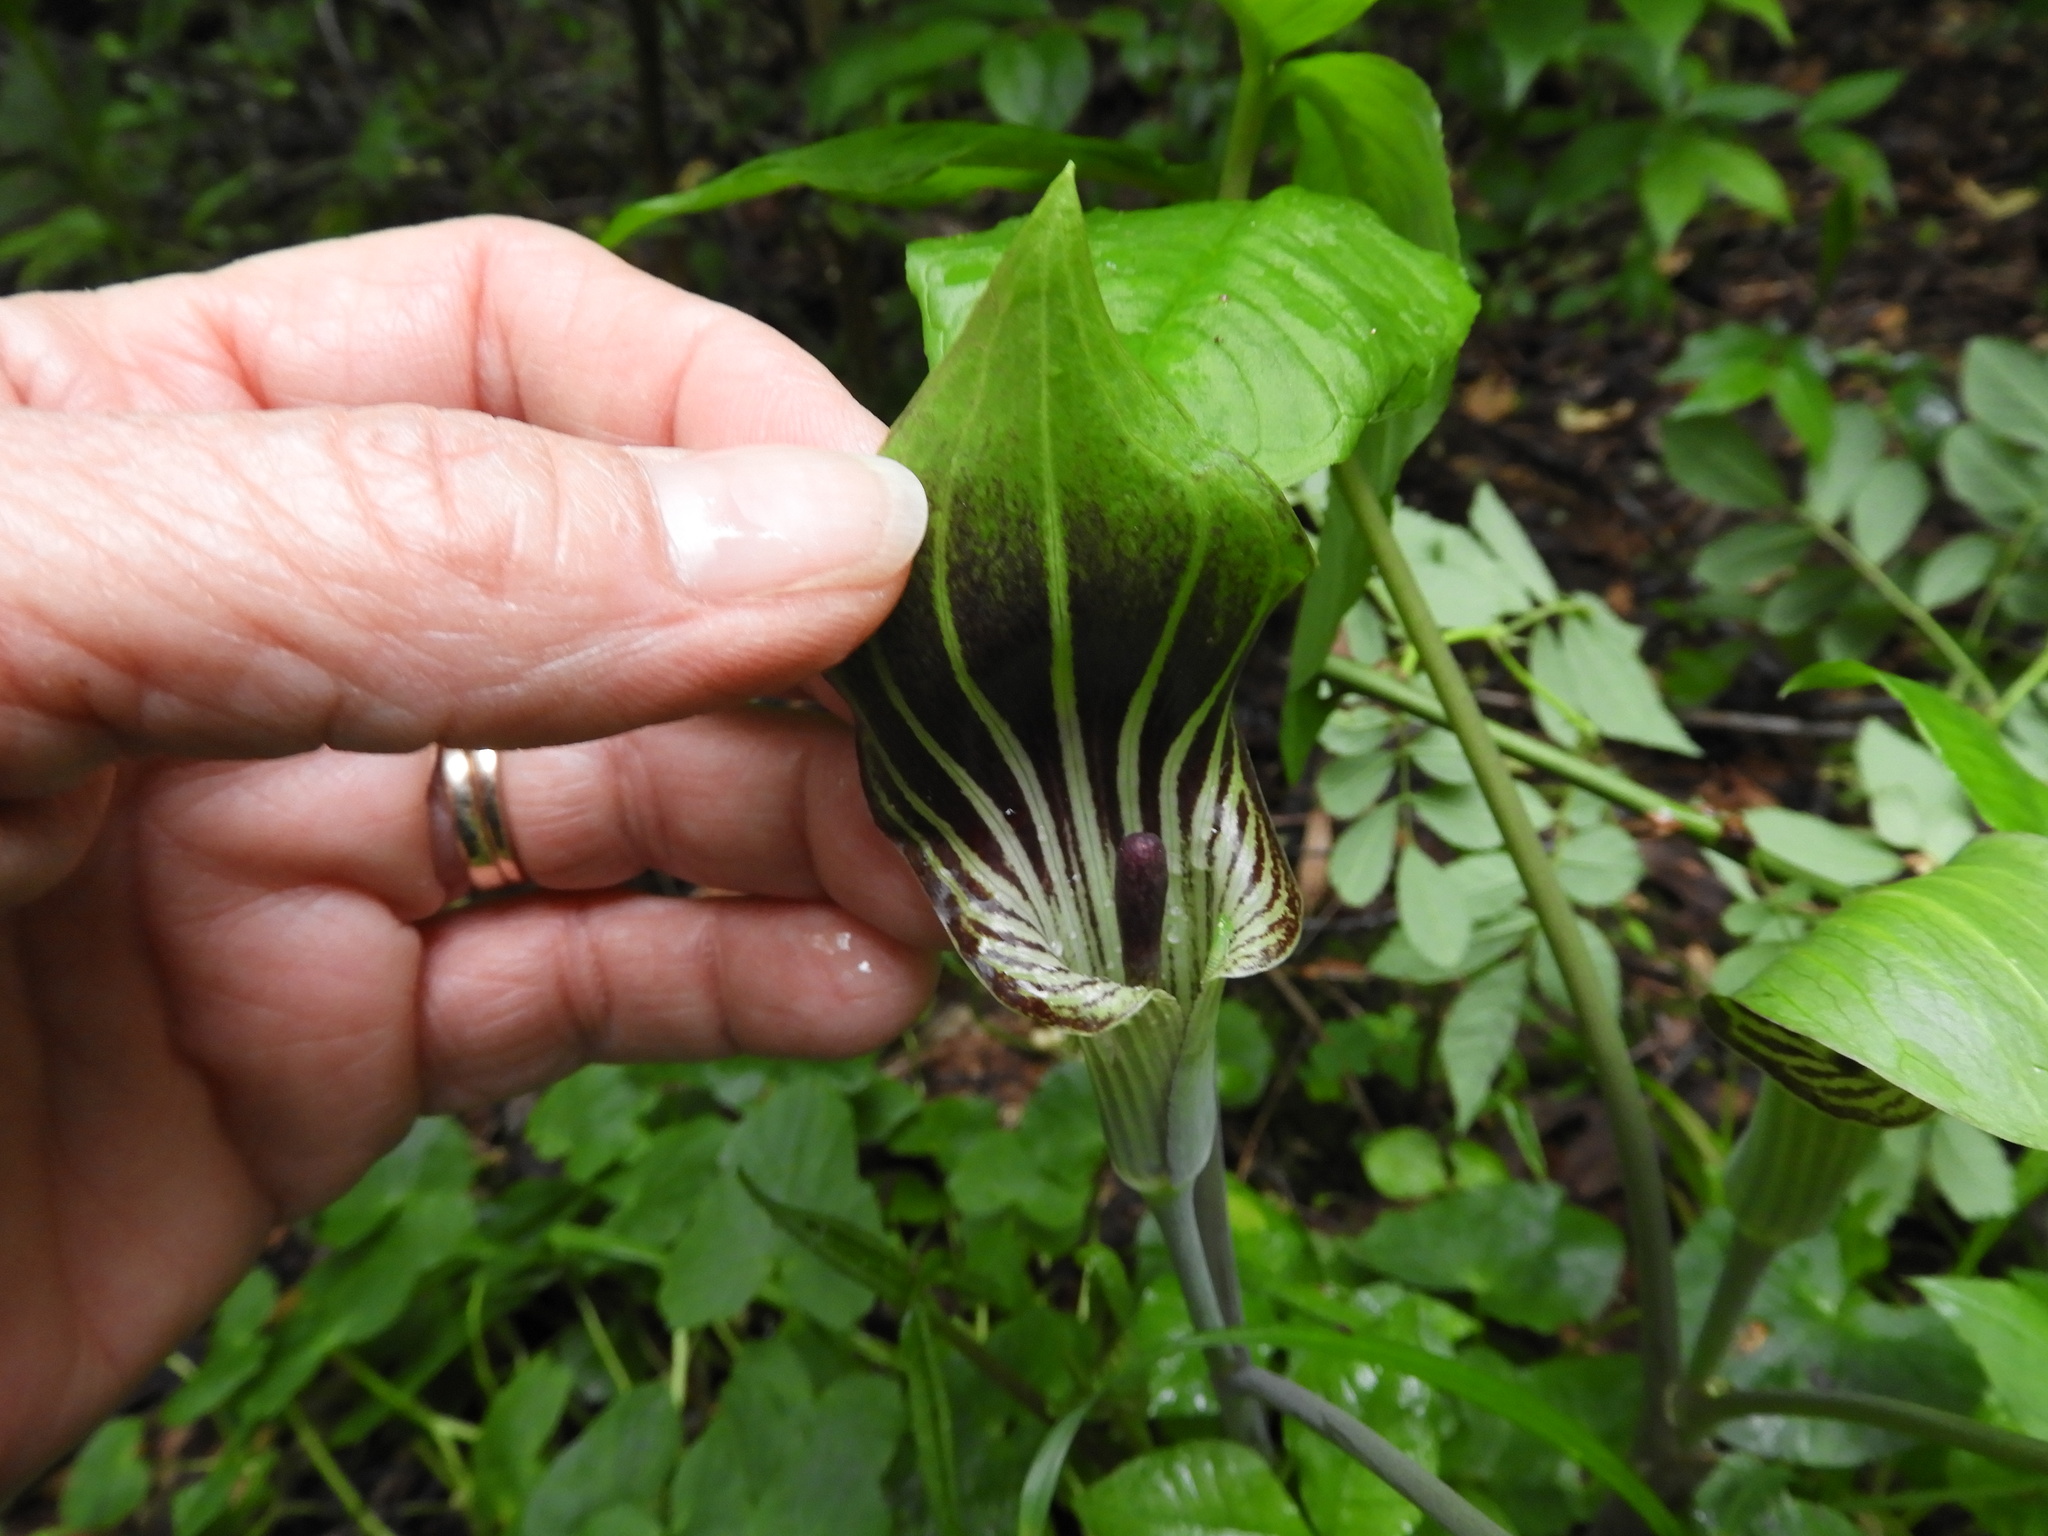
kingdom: Plantae
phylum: Tracheophyta
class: Liliopsida
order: Alismatales
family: Araceae
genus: Arisaema
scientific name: Arisaema triphyllum
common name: Jack-in-the-pulpit
